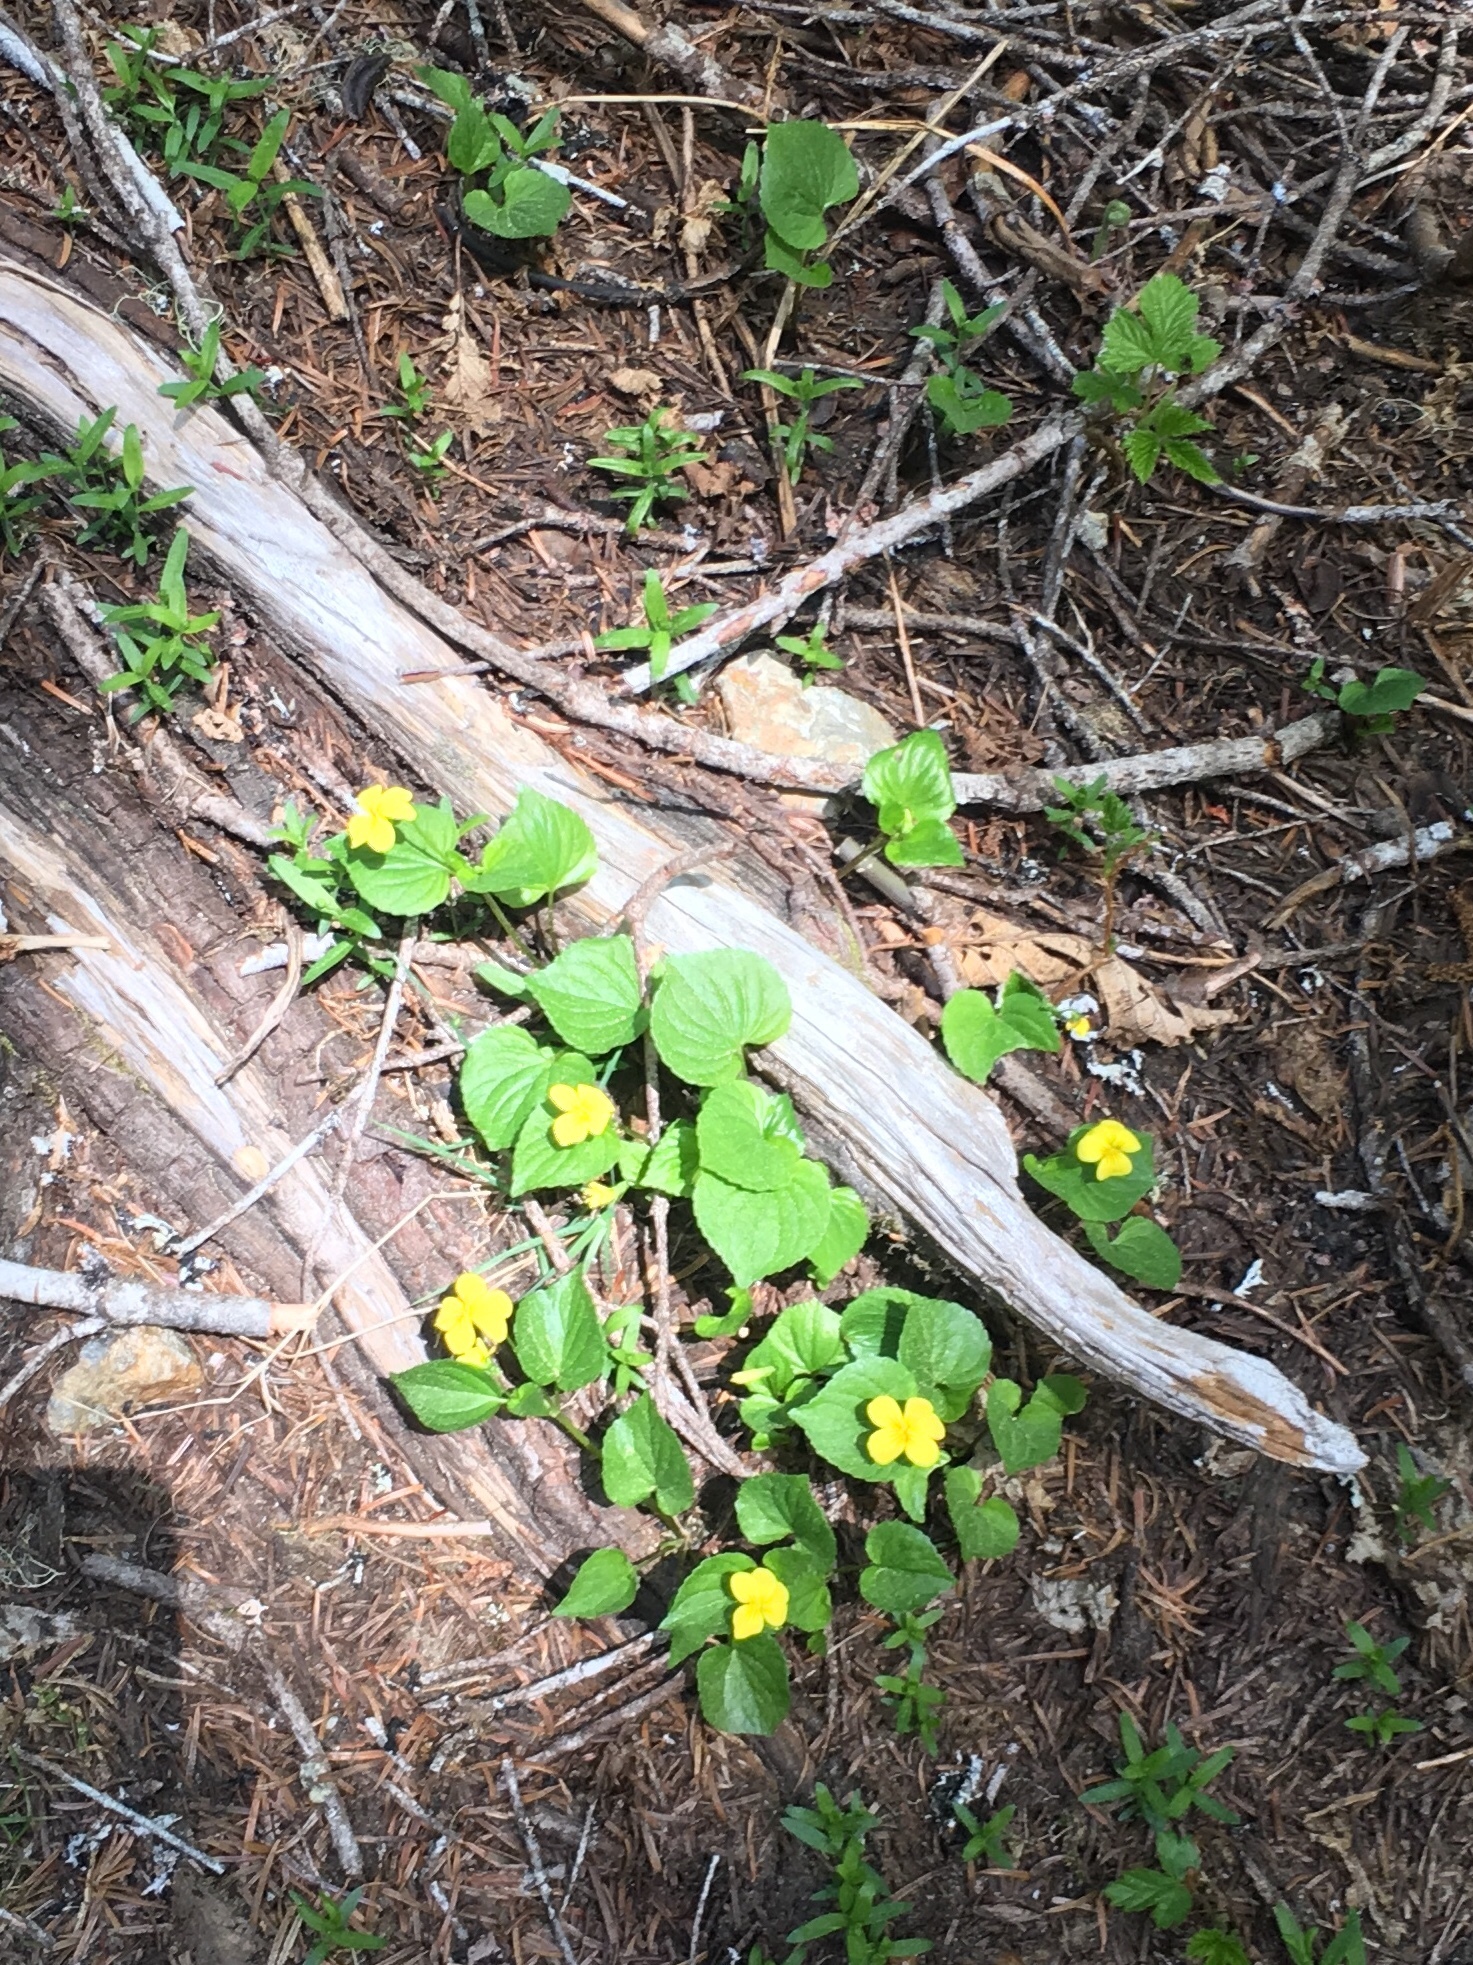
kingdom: Plantae
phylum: Tracheophyta
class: Magnoliopsida
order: Malpighiales
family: Violaceae
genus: Viola
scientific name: Viola glabella
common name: Stream violet
